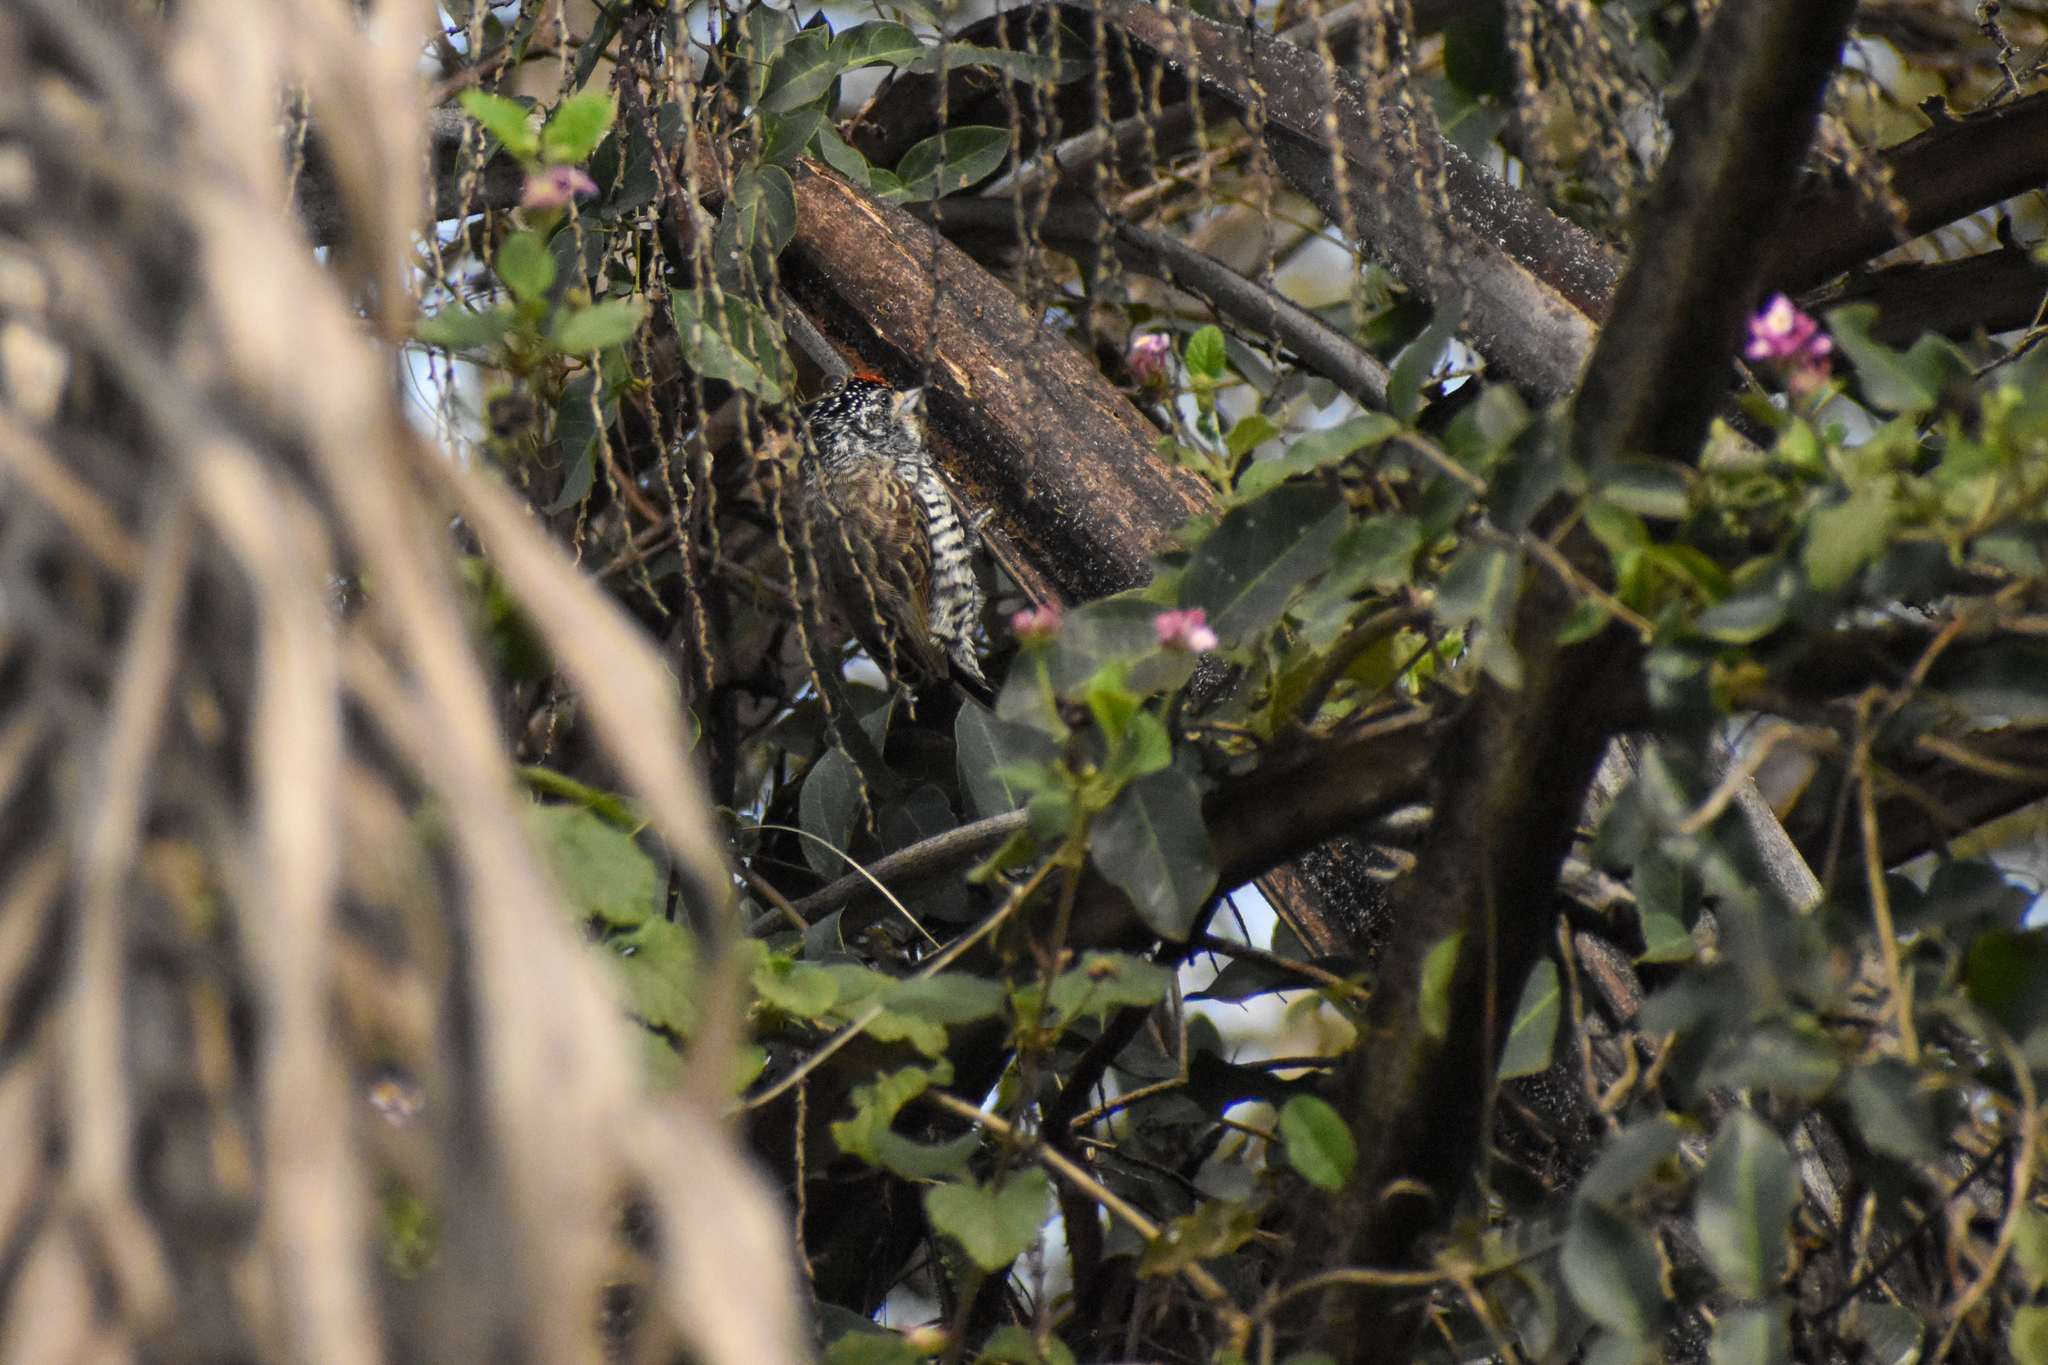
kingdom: Animalia
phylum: Chordata
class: Aves
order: Piciformes
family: Picidae
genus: Picumnus
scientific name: Picumnus cirratus
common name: White-barred piculet
